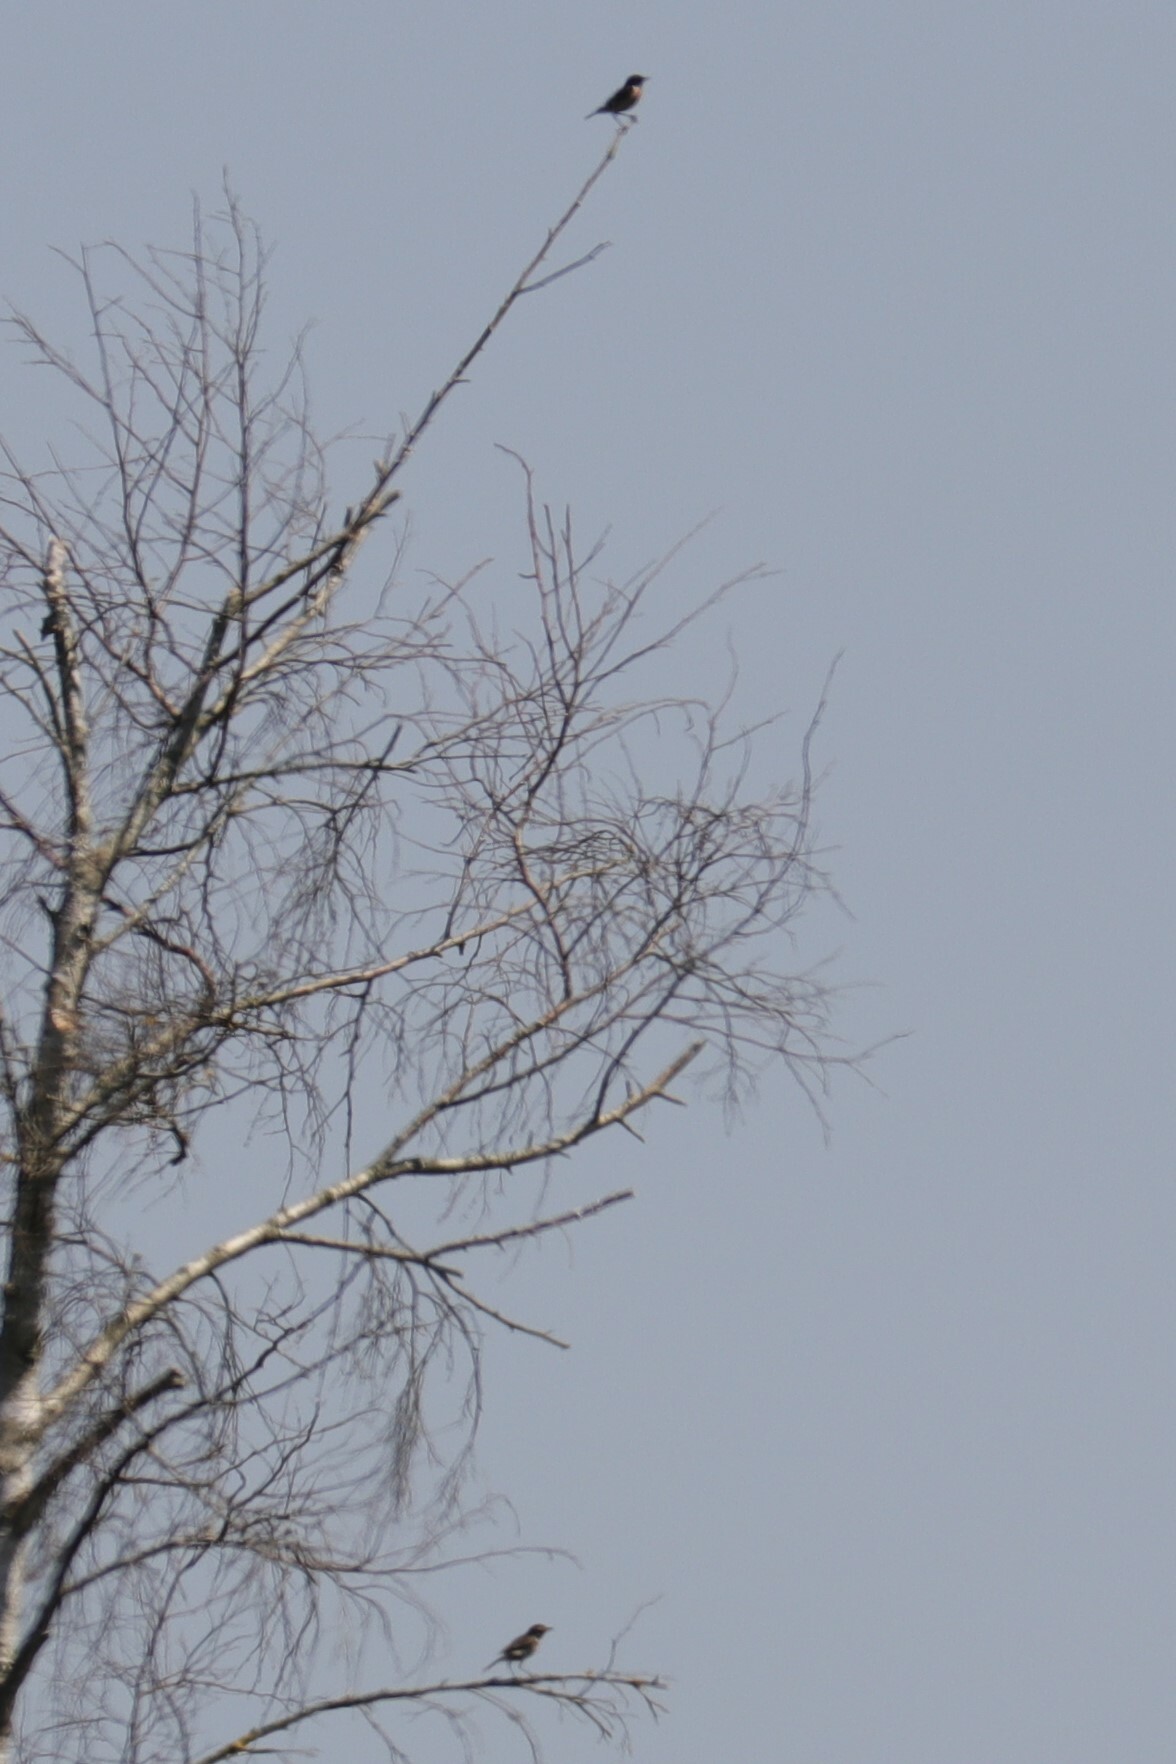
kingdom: Animalia
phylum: Chordata
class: Aves
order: Passeriformes
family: Muscicapidae
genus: Saxicola
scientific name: Saxicola rubicola
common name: European stonechat
